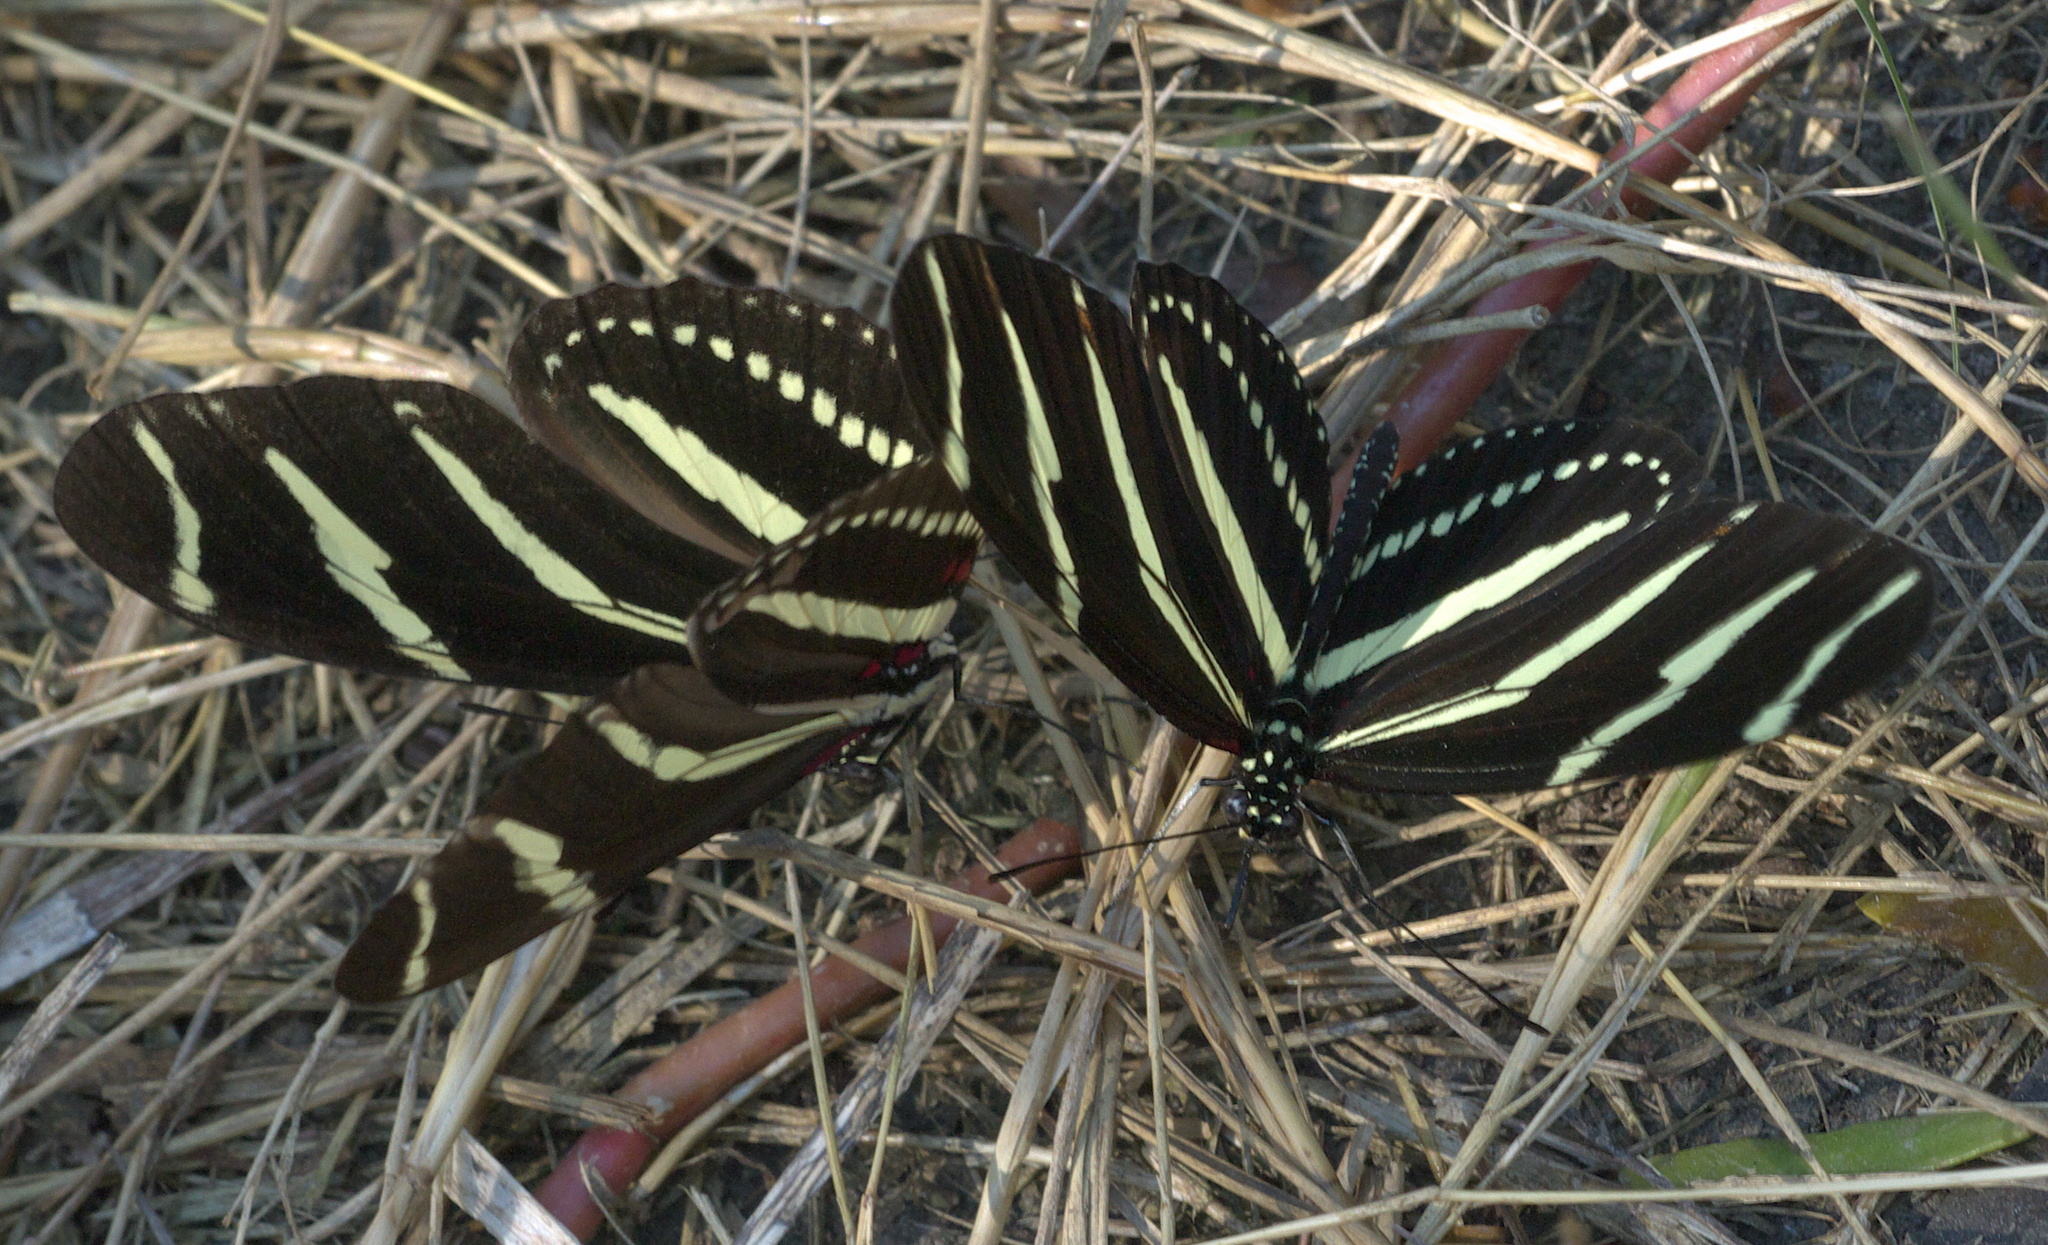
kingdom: Animalia
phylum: Arthropoda
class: Insecta
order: Lepidoptera
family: Nymphalidae
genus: Heliconius
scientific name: Heliconius charithonia
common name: Zebra long wing
